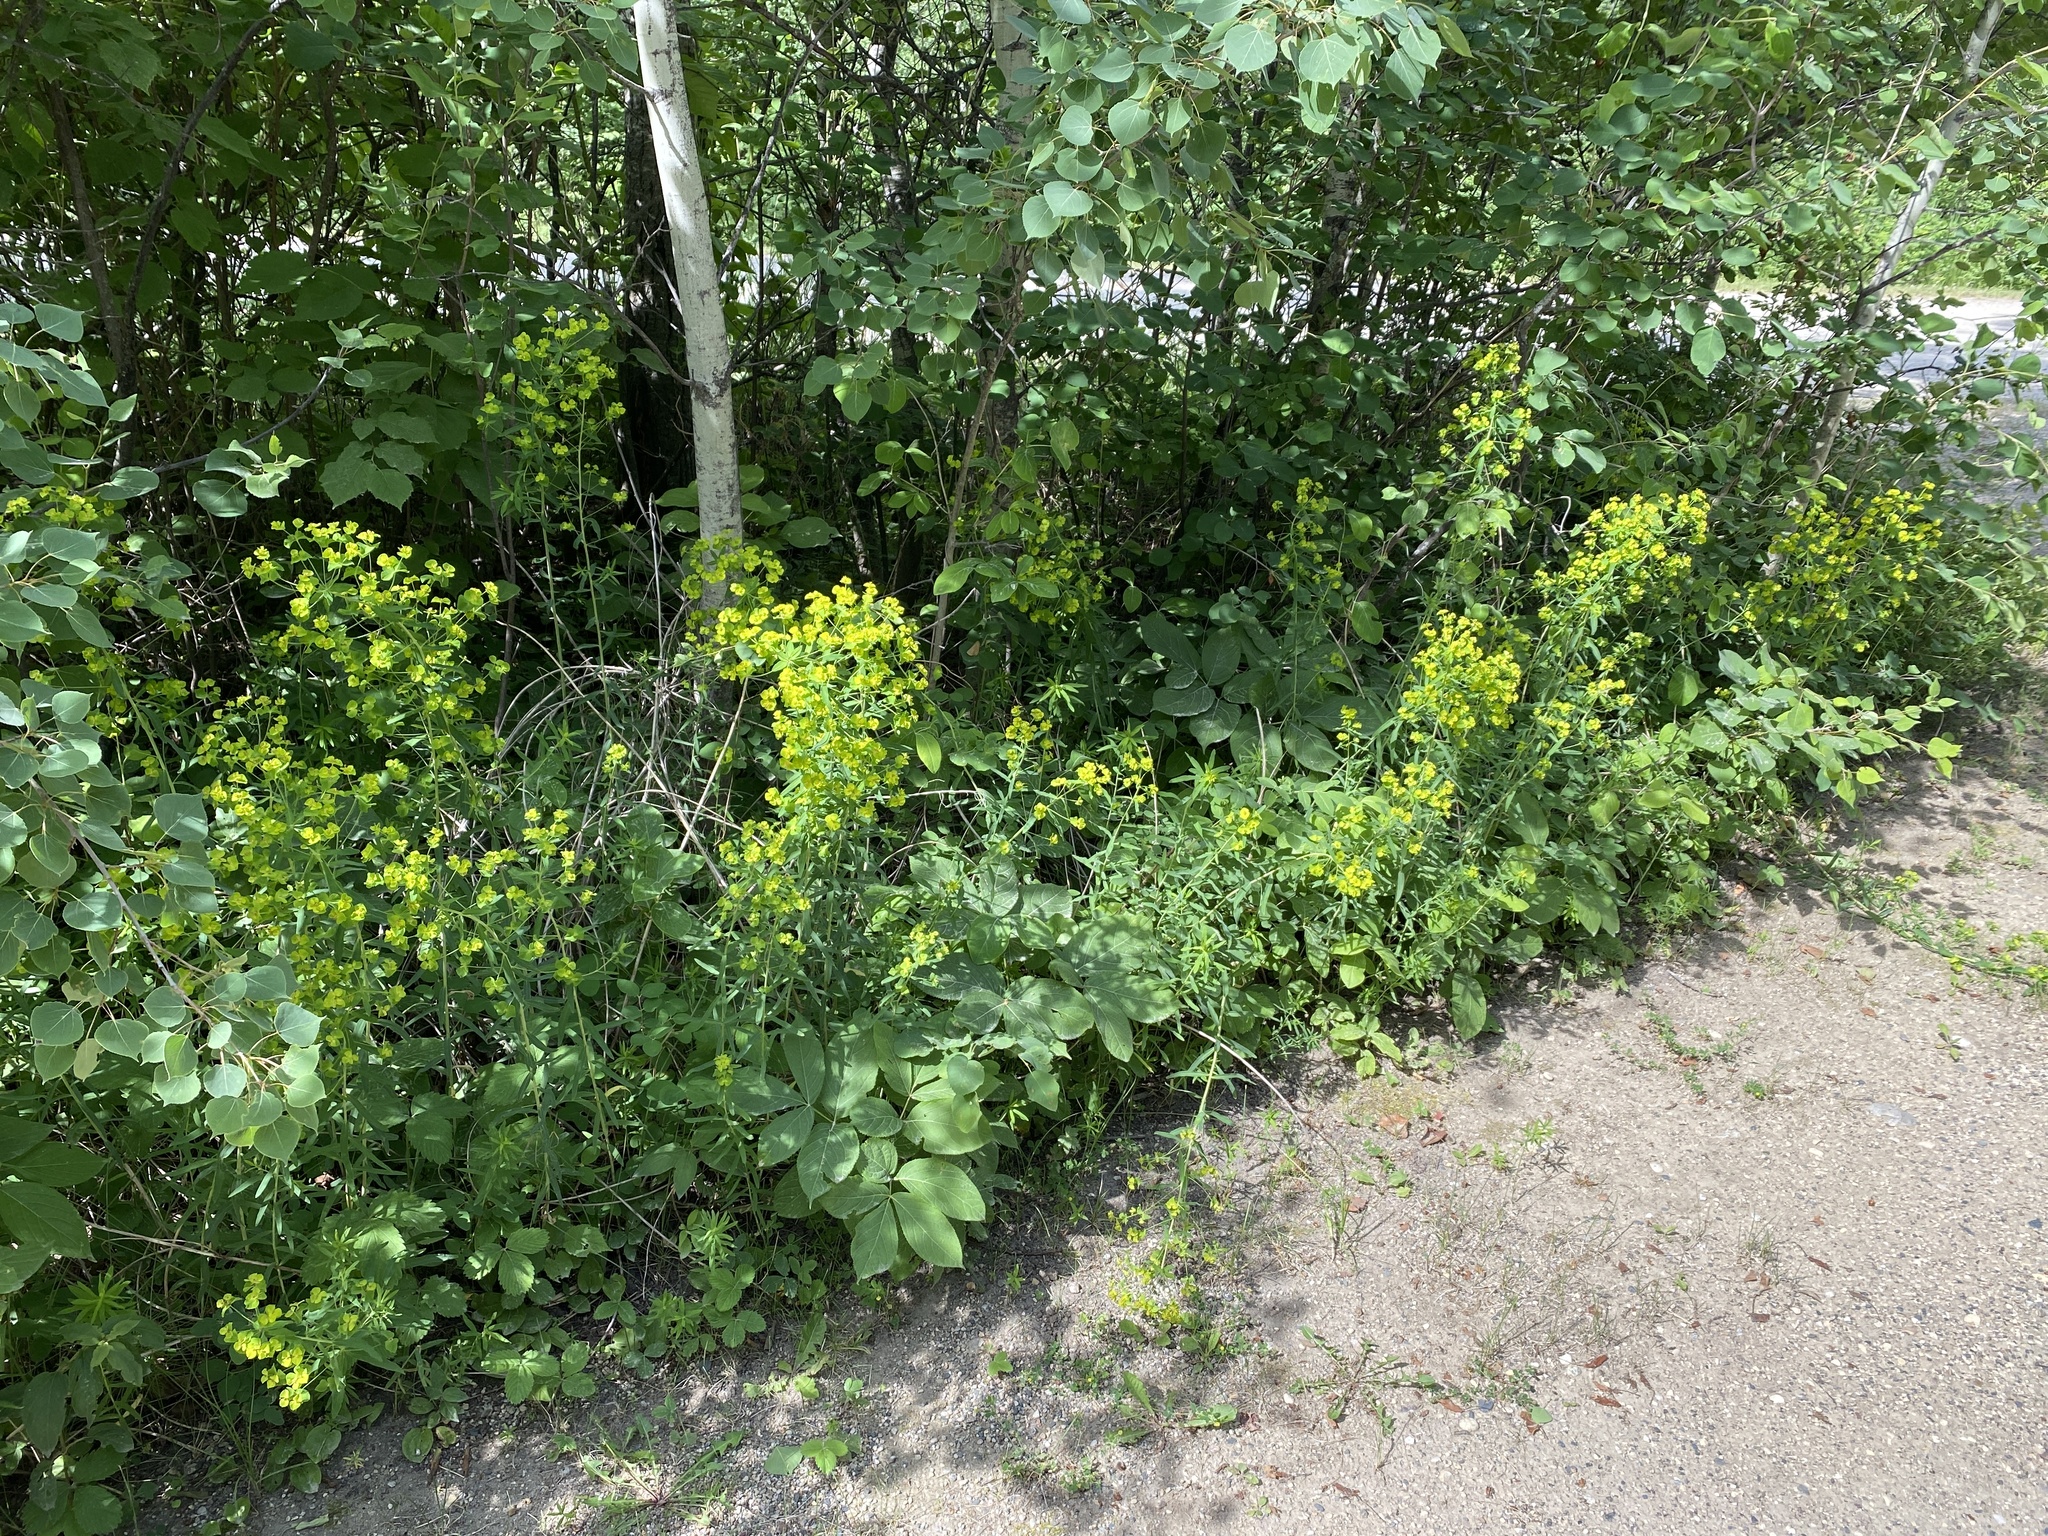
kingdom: Plantae
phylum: Tracheophyta
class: Magnoliopsida
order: Malpighiales
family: Euphorbiaceae
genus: Euphorbia
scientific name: Euphorbia virgata
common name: Leafy spurge
